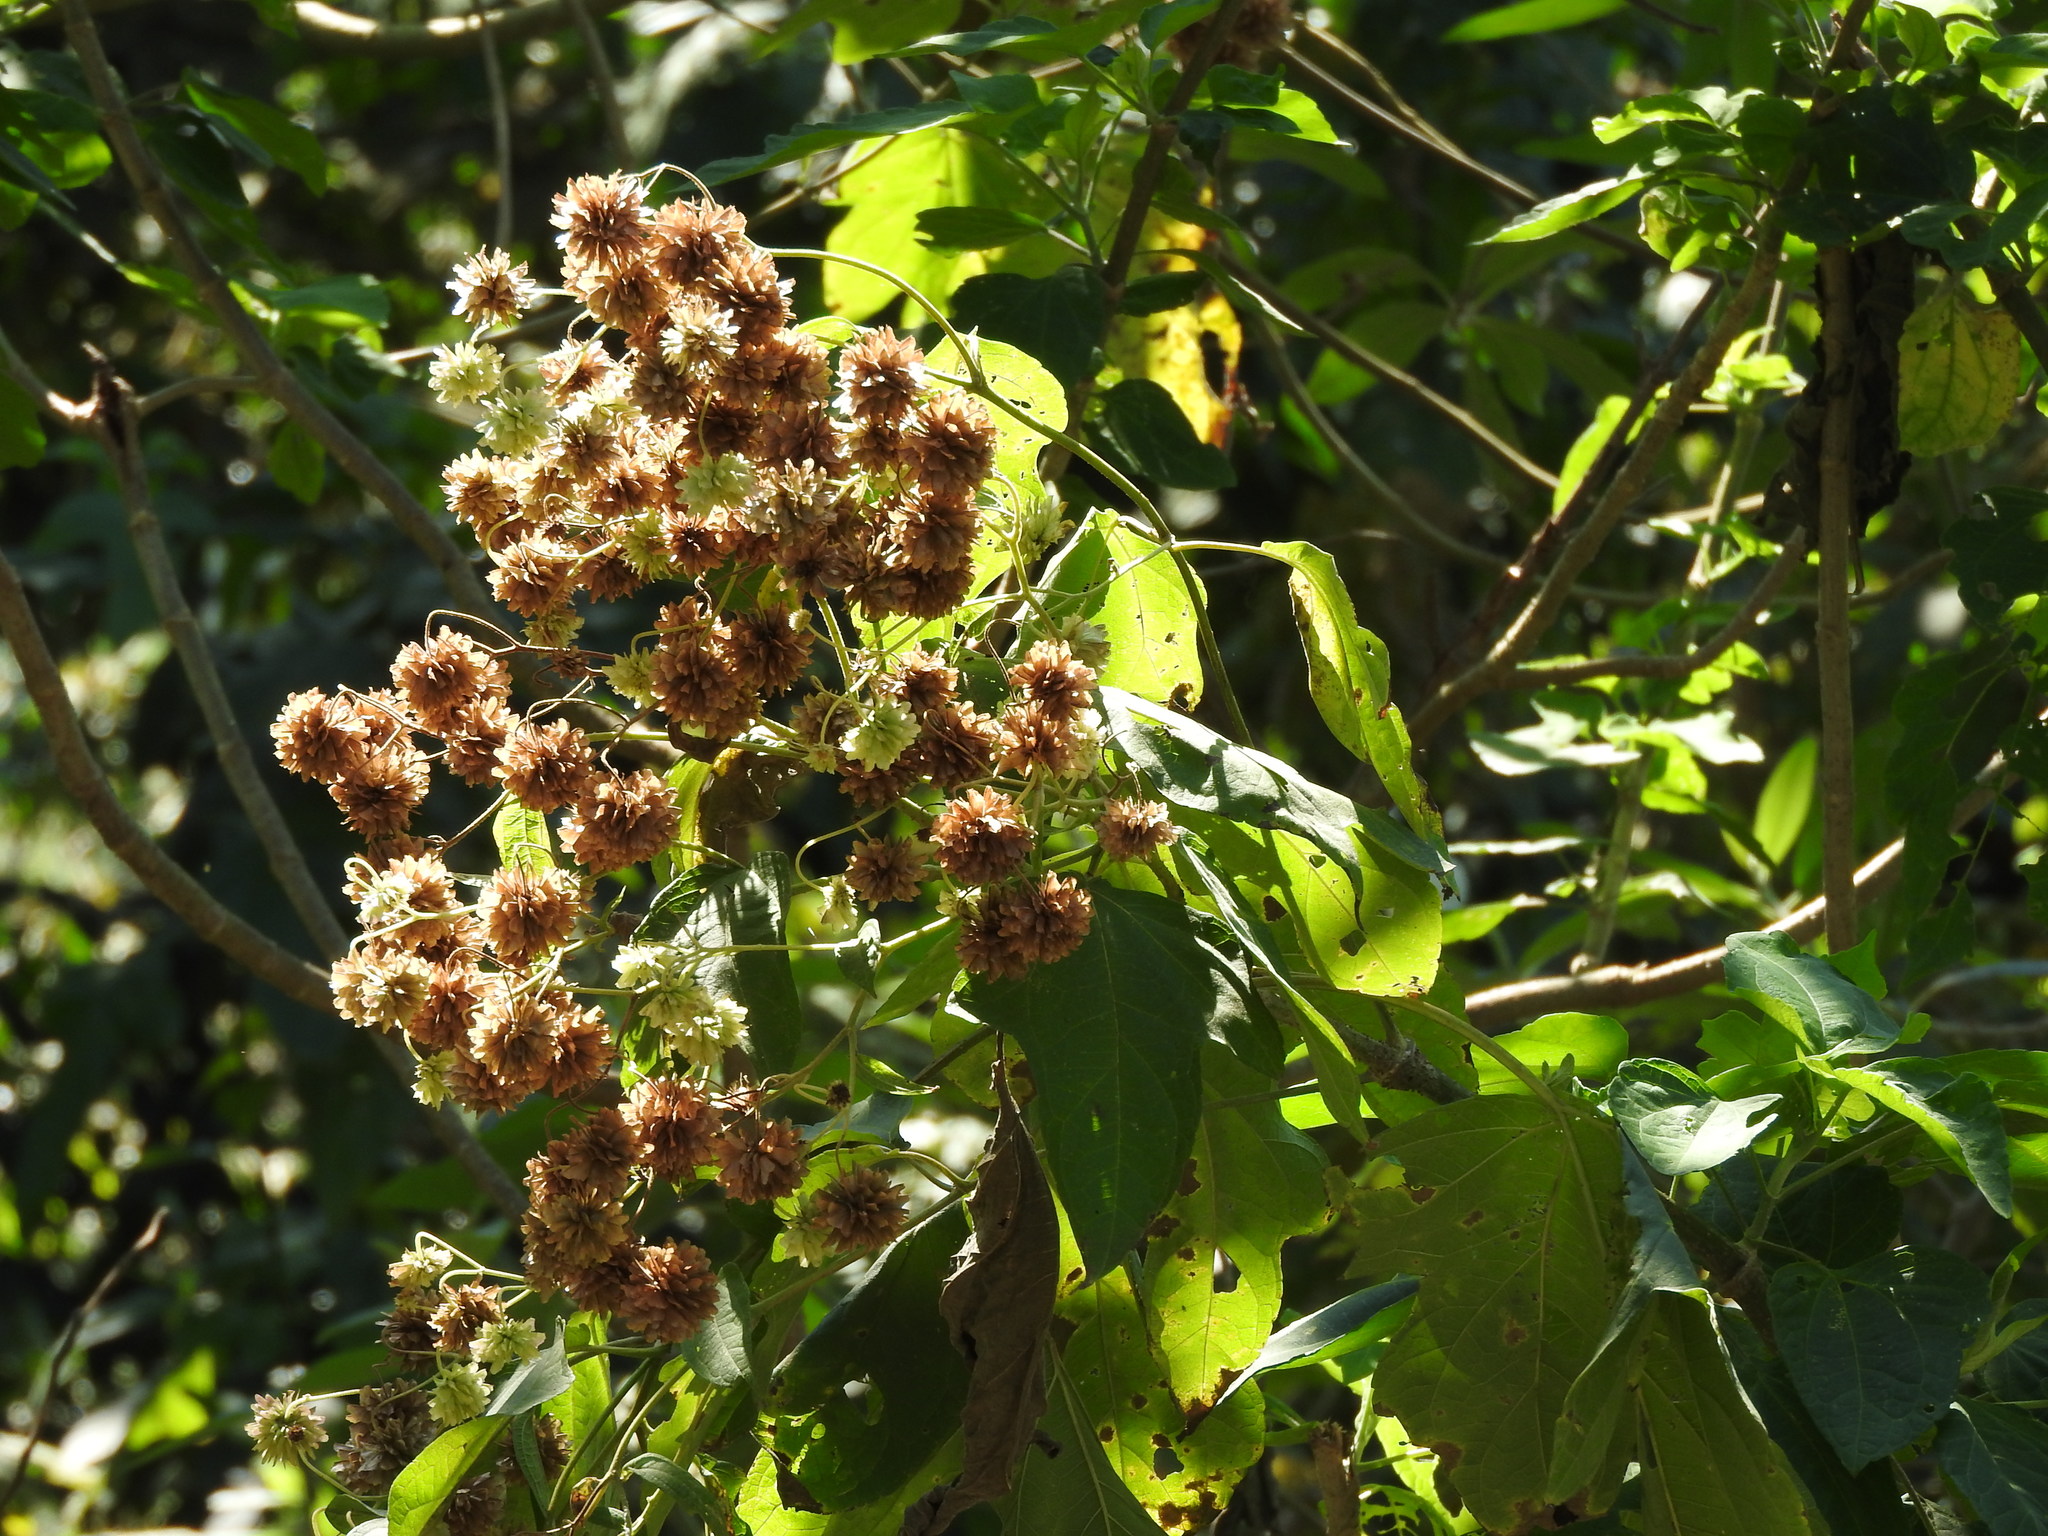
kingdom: Plantae
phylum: Tracheophyta
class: Magnoliopsida
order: Asterales
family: Asteraceae
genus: Montanoa
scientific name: Montanoa hibiscifolia
